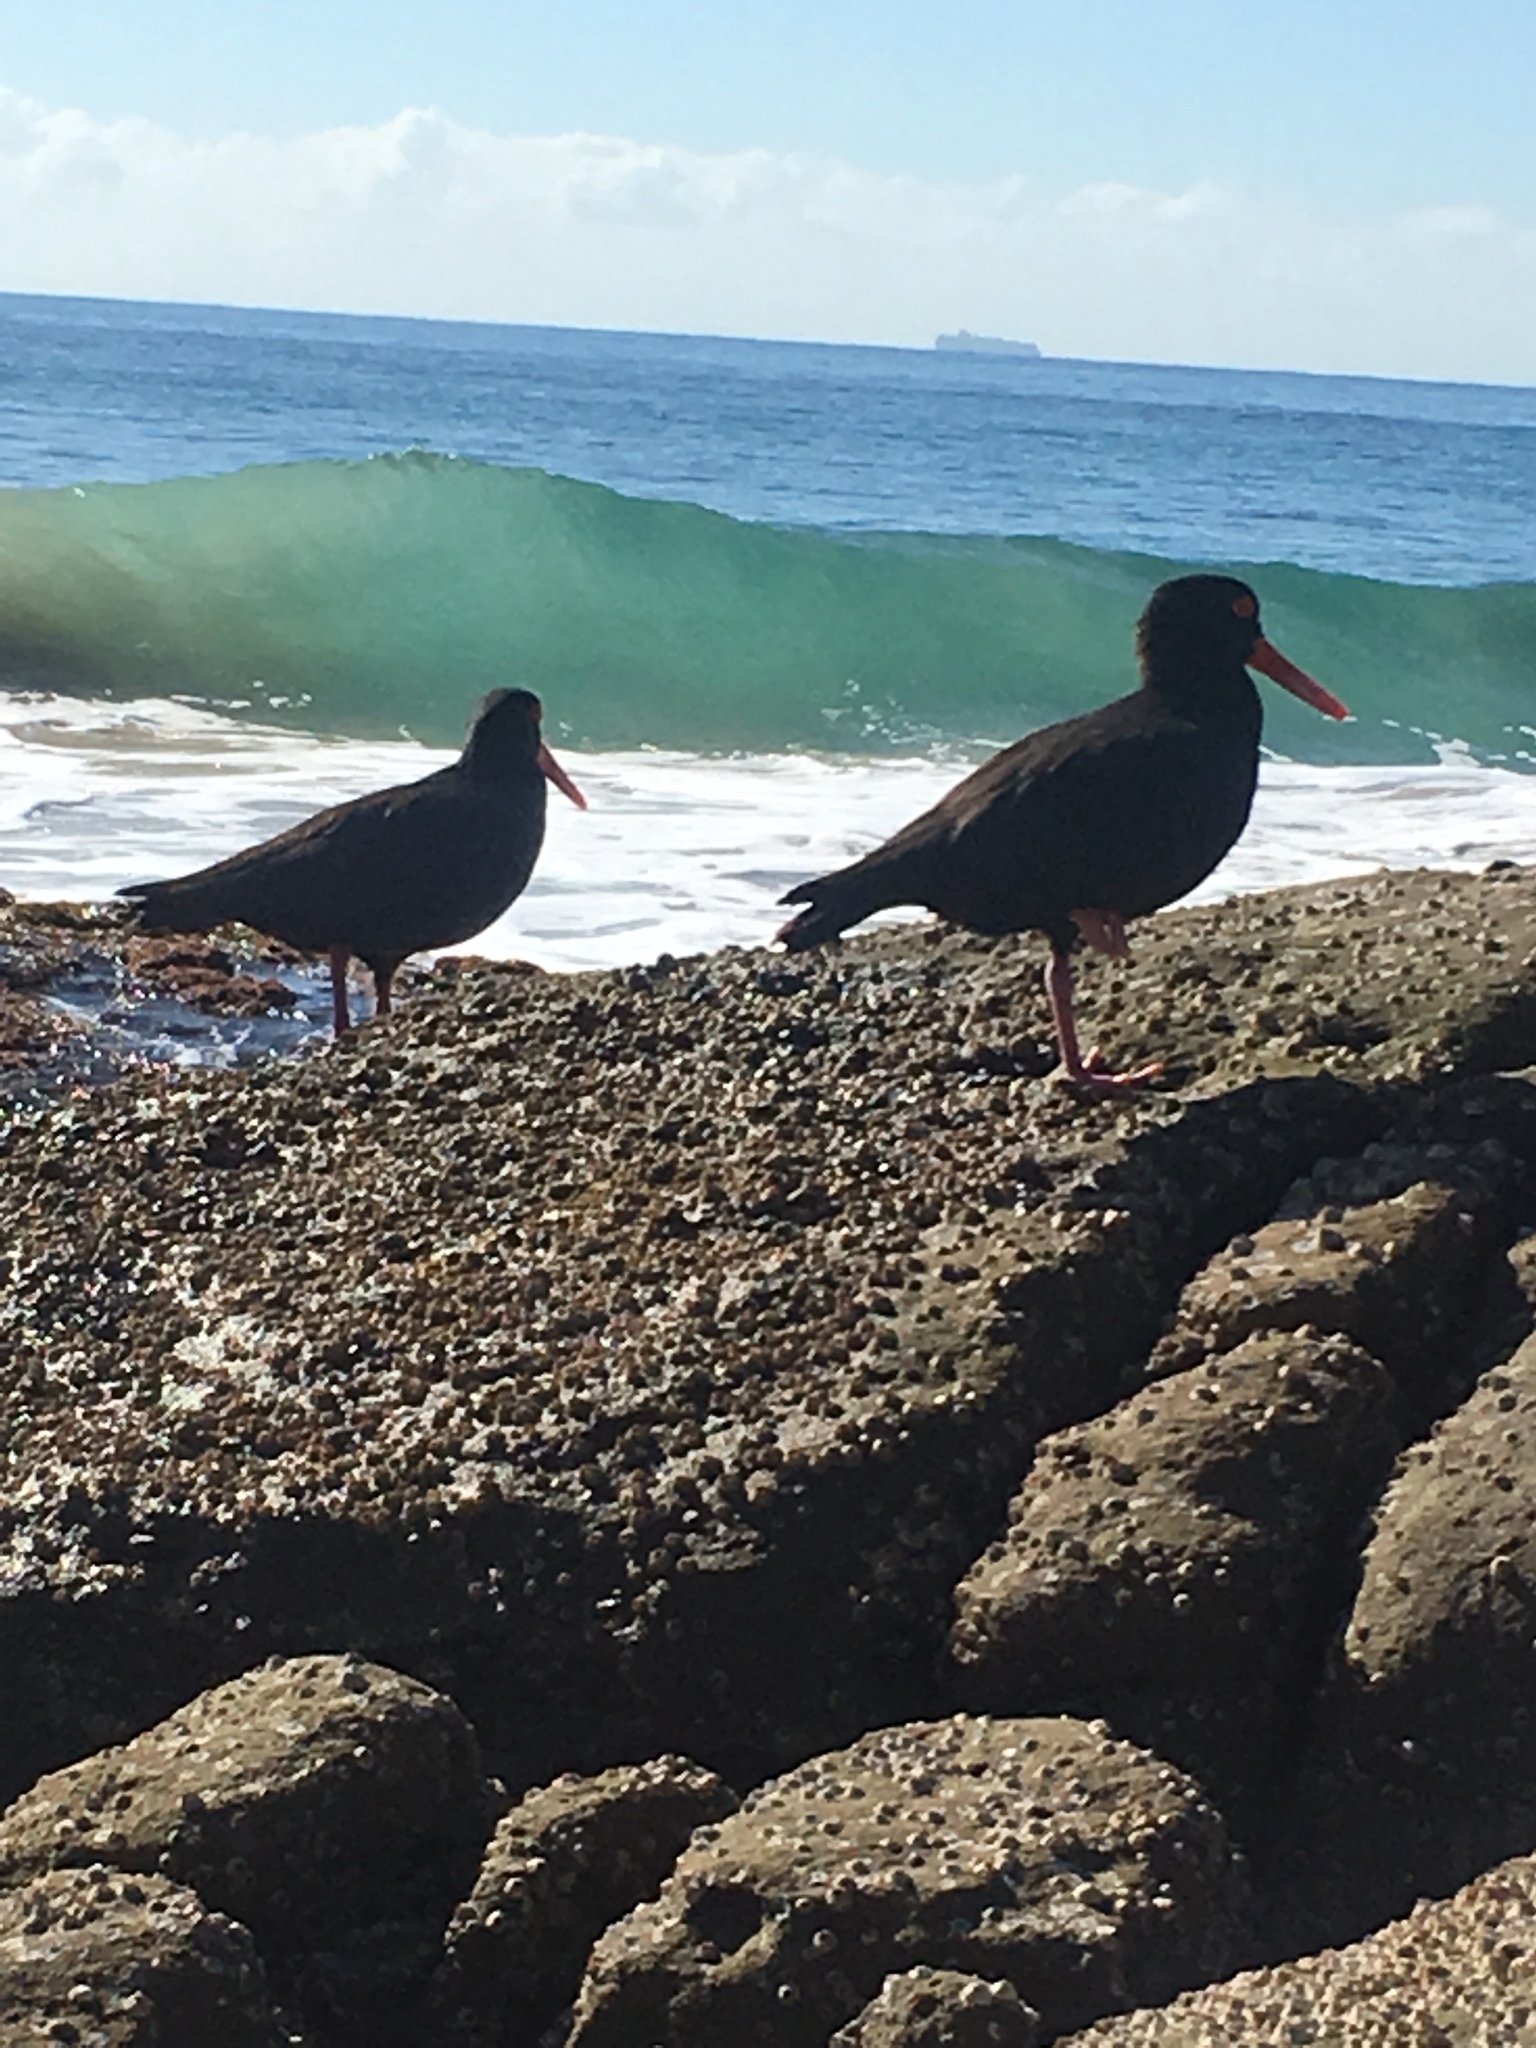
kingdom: Animalia
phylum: Chordata
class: Aves
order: Charadriiformes
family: Haematopodidae
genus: Haematopus
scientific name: Haematopus fuliginosus
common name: Sooty oystercatcher
